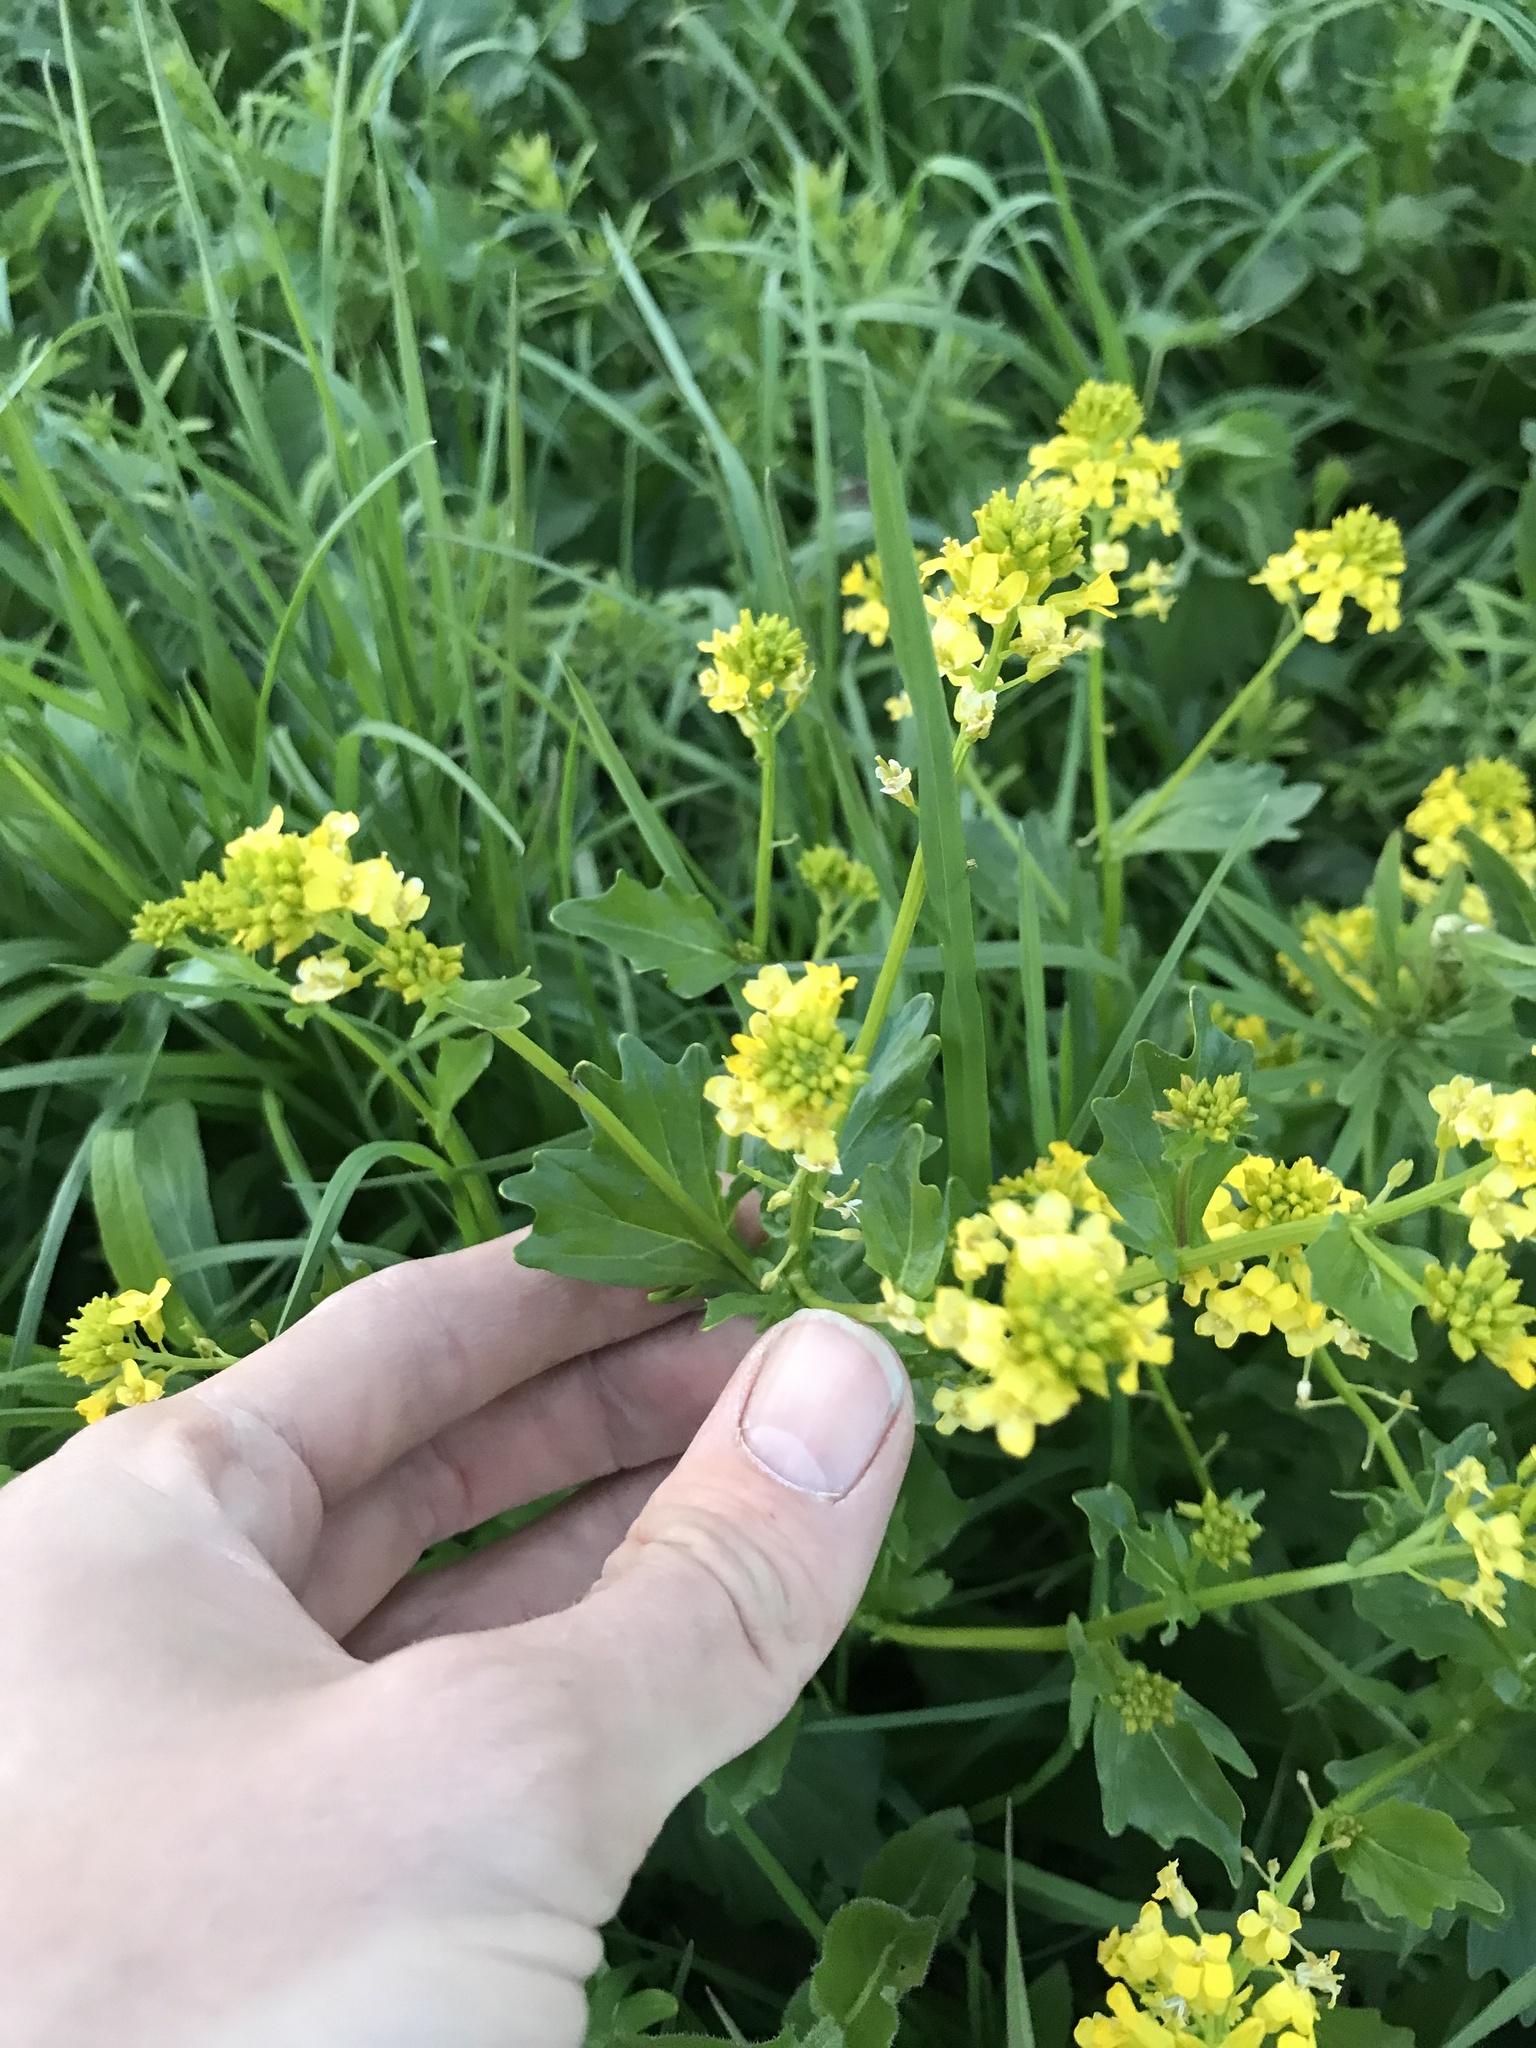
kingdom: Plantae
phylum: Tracheophyta
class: Magnoliopsida
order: Brassicales
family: Brassicaceae
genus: Barbarea
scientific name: Barbarea vulgaris
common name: Cressy-greens
